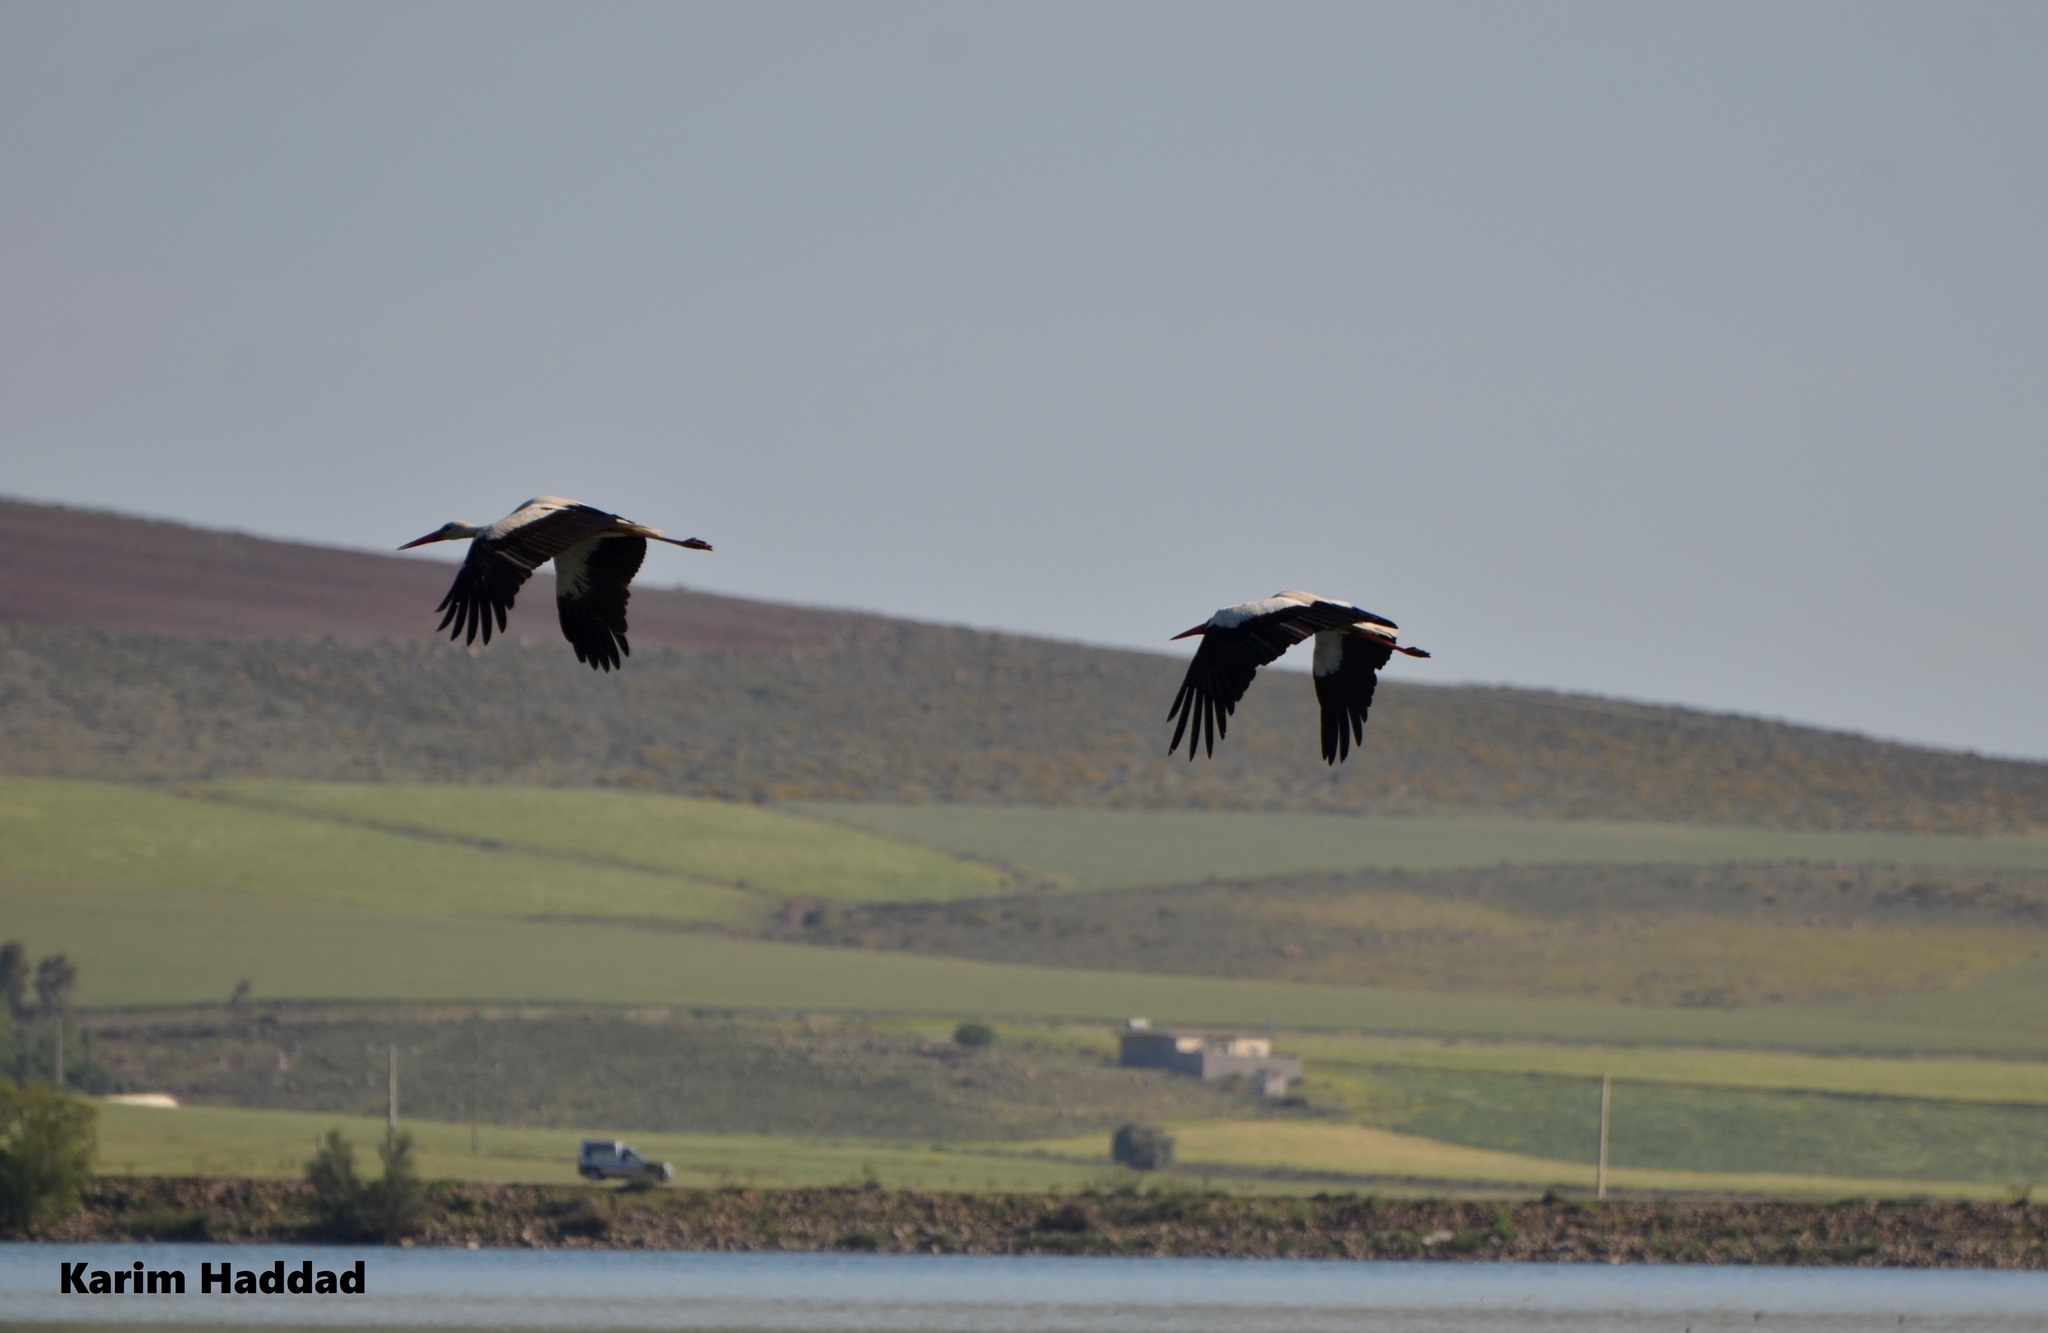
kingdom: Animalia
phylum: Chordata
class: Aves
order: Ciconiiformes
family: Ciconiidae
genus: Ciconia
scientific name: Ciconia ciconia
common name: White stork
